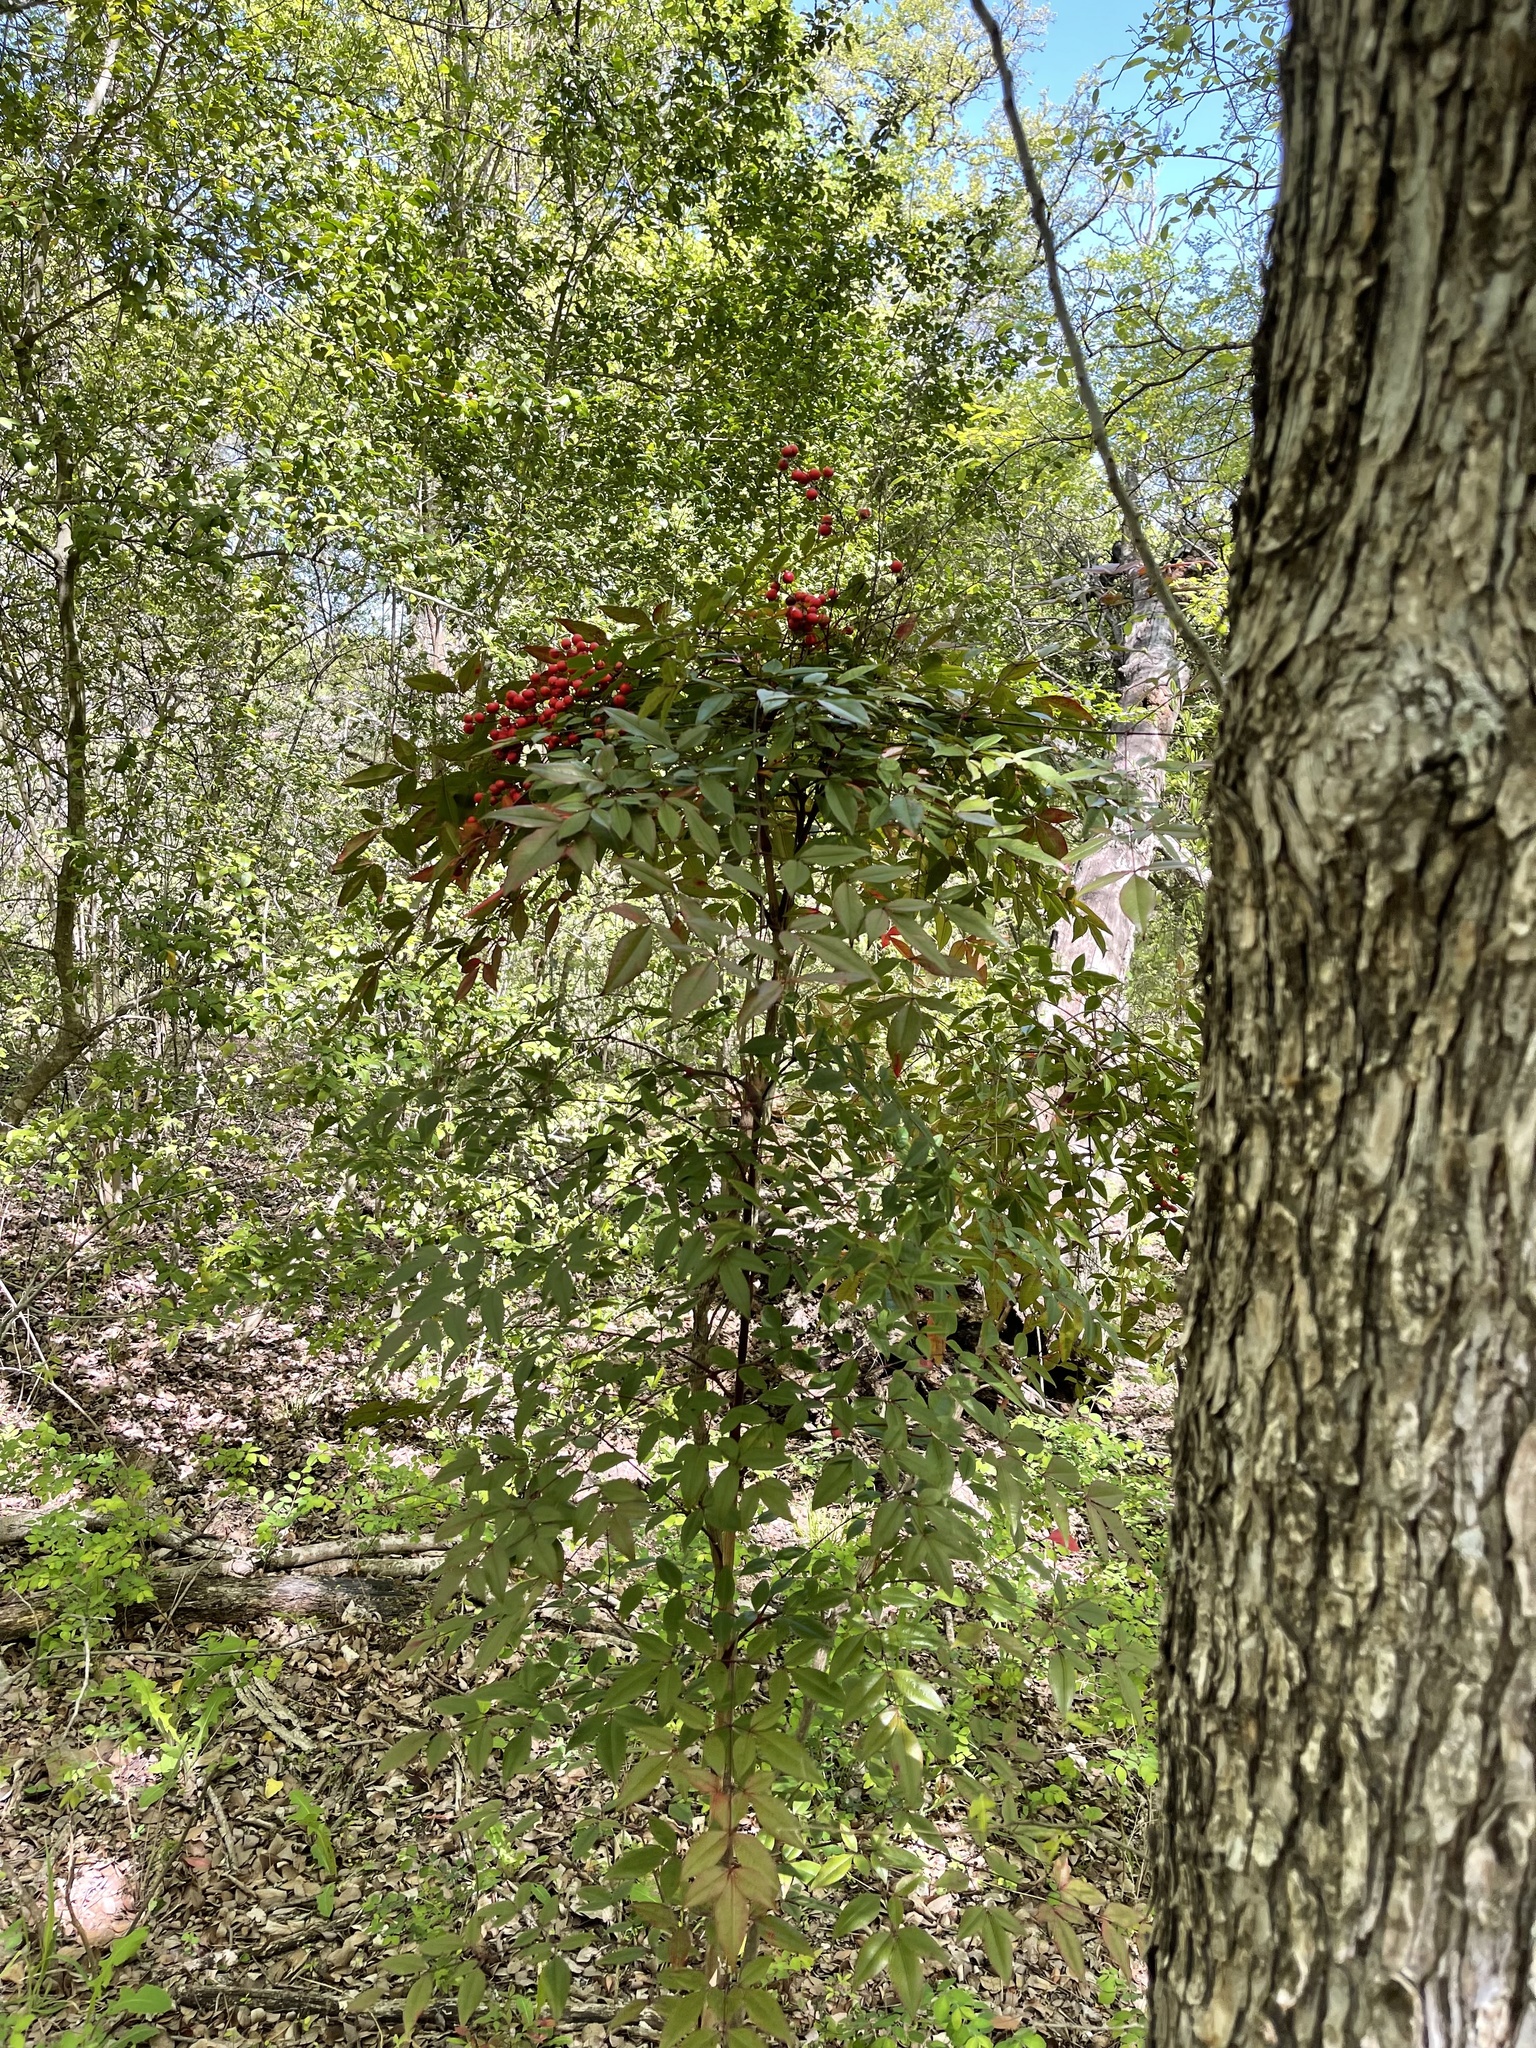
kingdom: Plantae
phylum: Tracheophyta
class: Magnoliopsida
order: Ranunculales
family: Berberidaceae
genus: Nandina
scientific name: Nandina domestica
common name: Sacred bamboo
